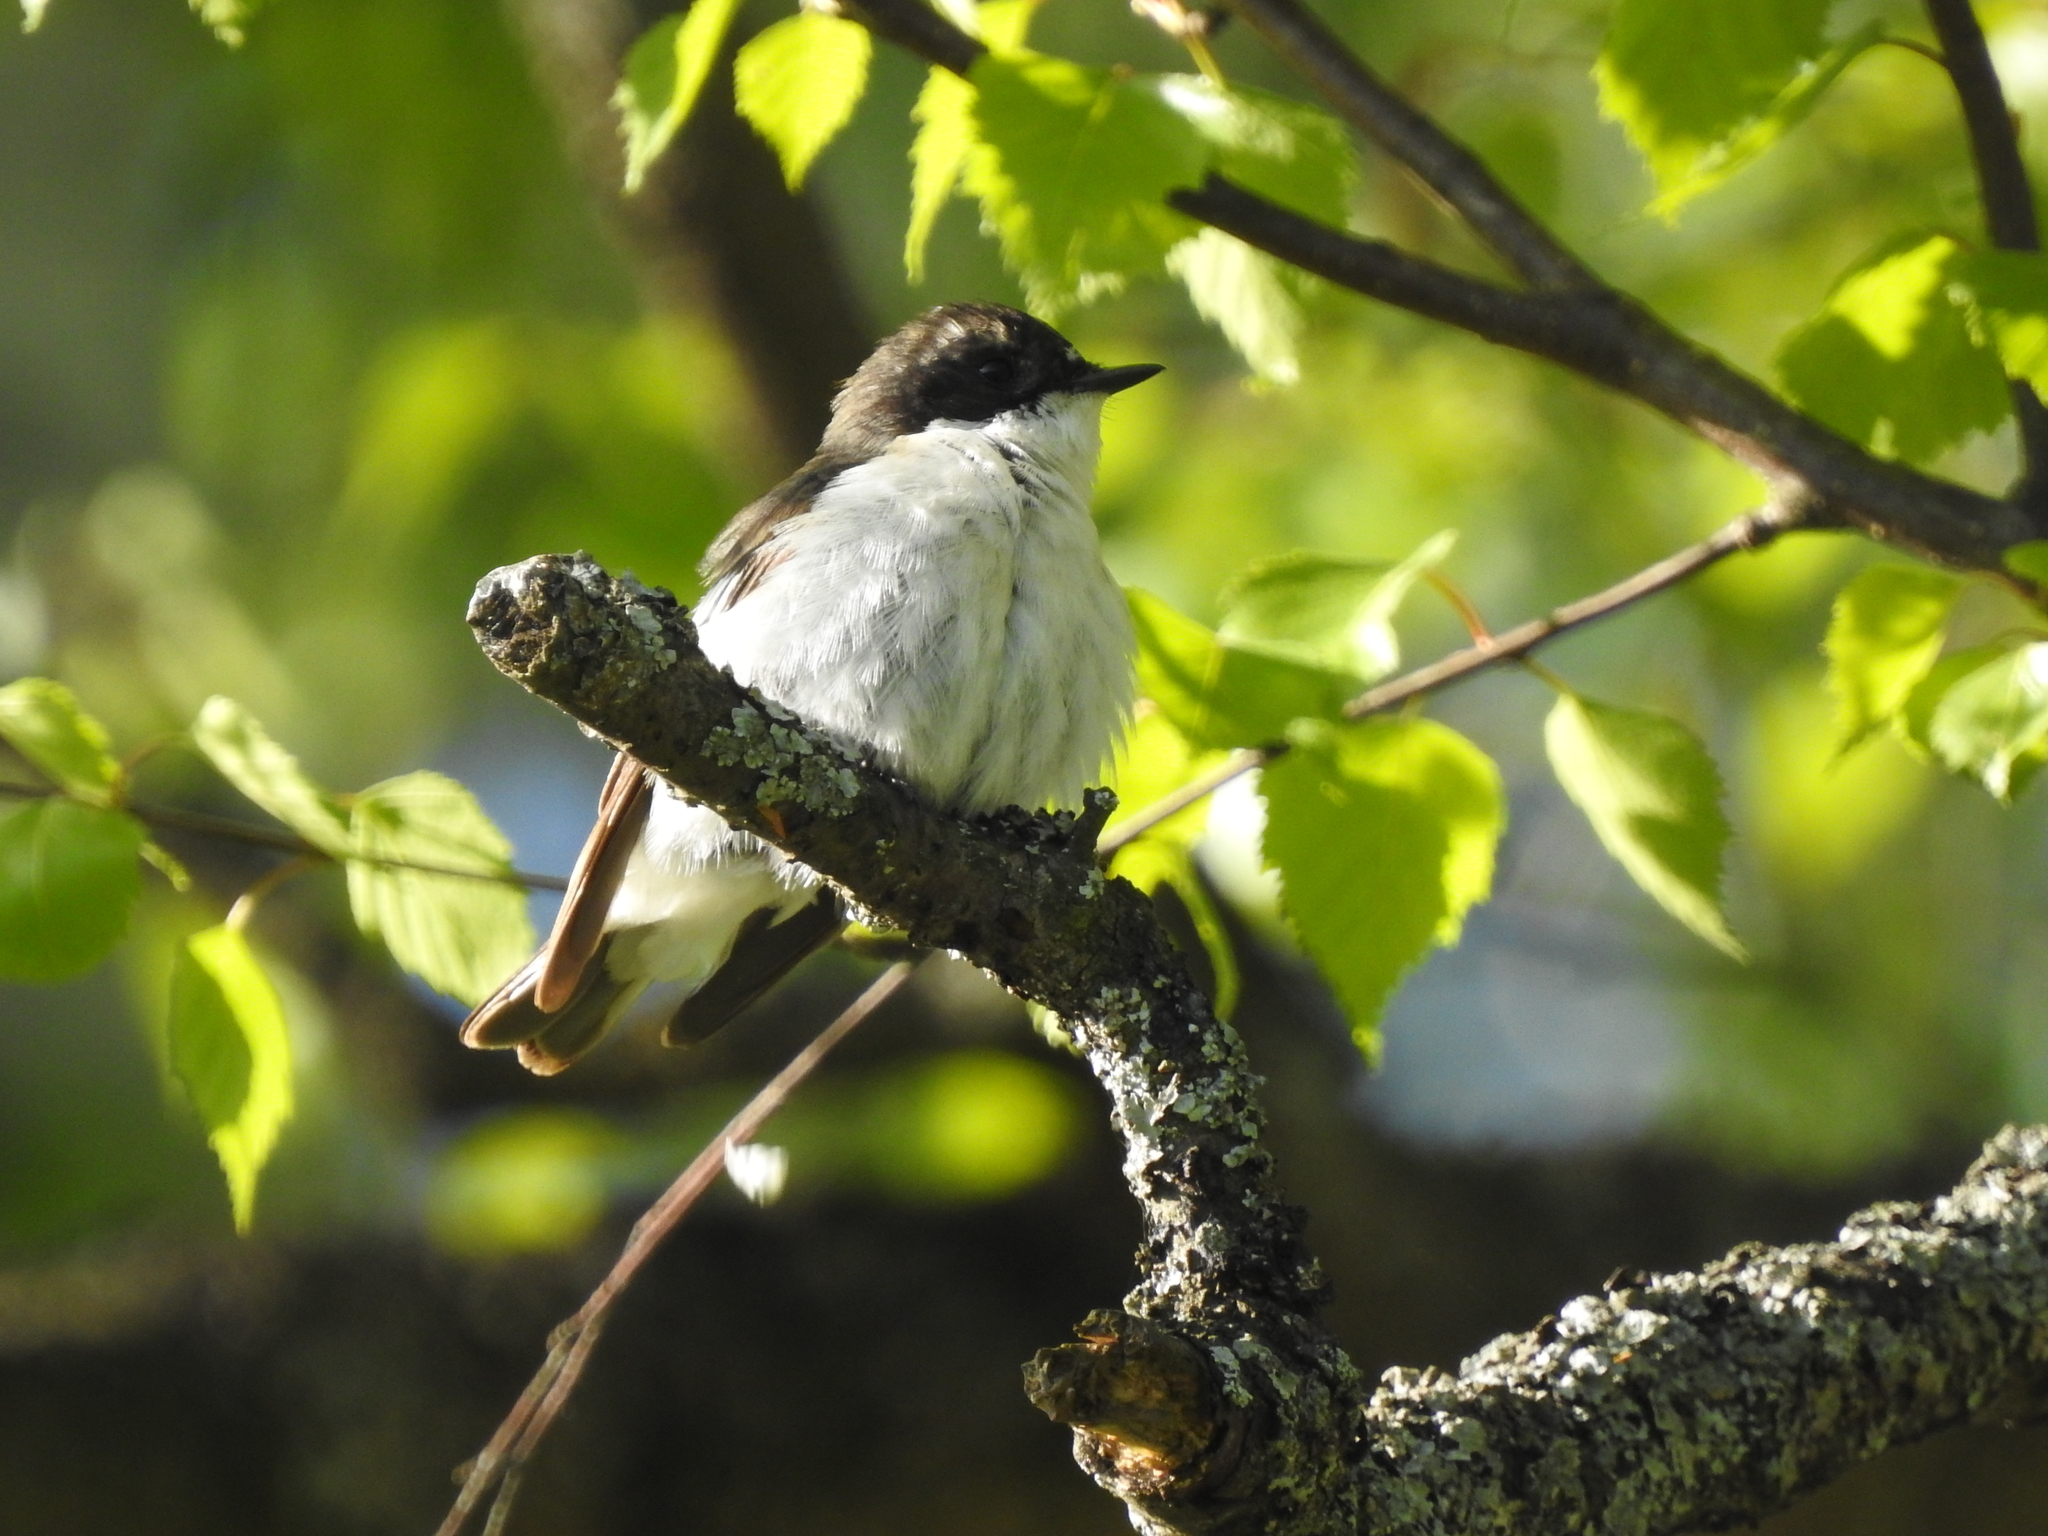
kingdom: Animalia
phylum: Chordata
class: Aves
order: Passeriformes
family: Muscicapidae
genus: Ficedula
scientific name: Ficedula hypoleuca
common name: European pied flycatcher
